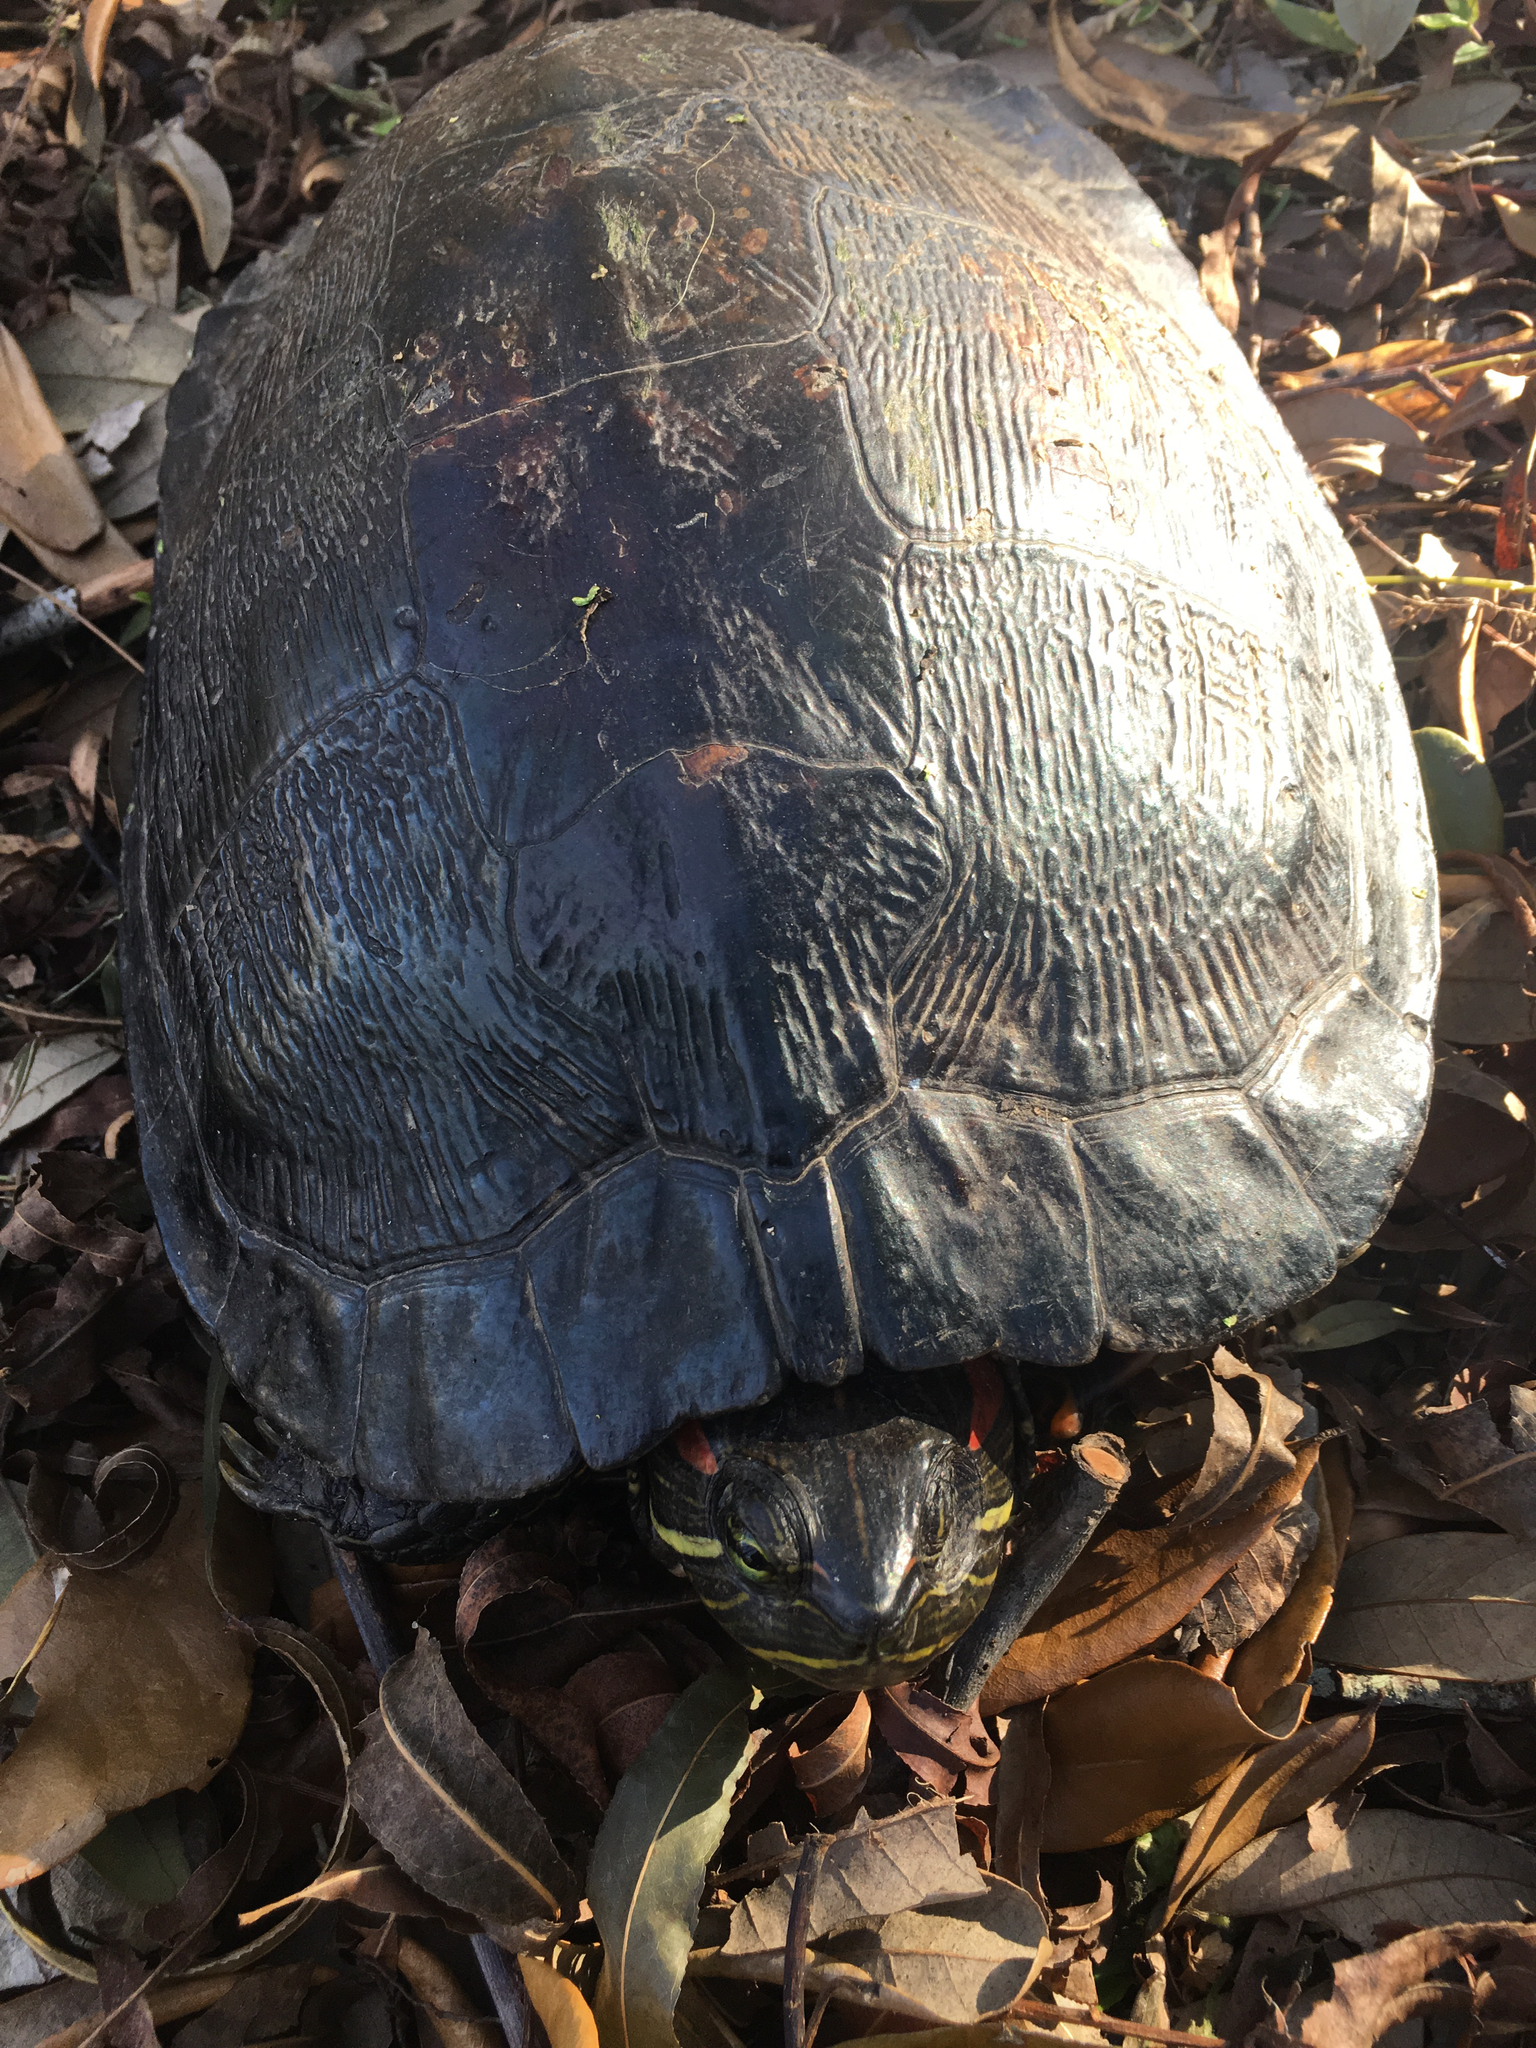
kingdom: Animalia
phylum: Chordata
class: Testudines
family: Emydidae
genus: Trachemys
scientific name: Trachemys scripta
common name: Slider
